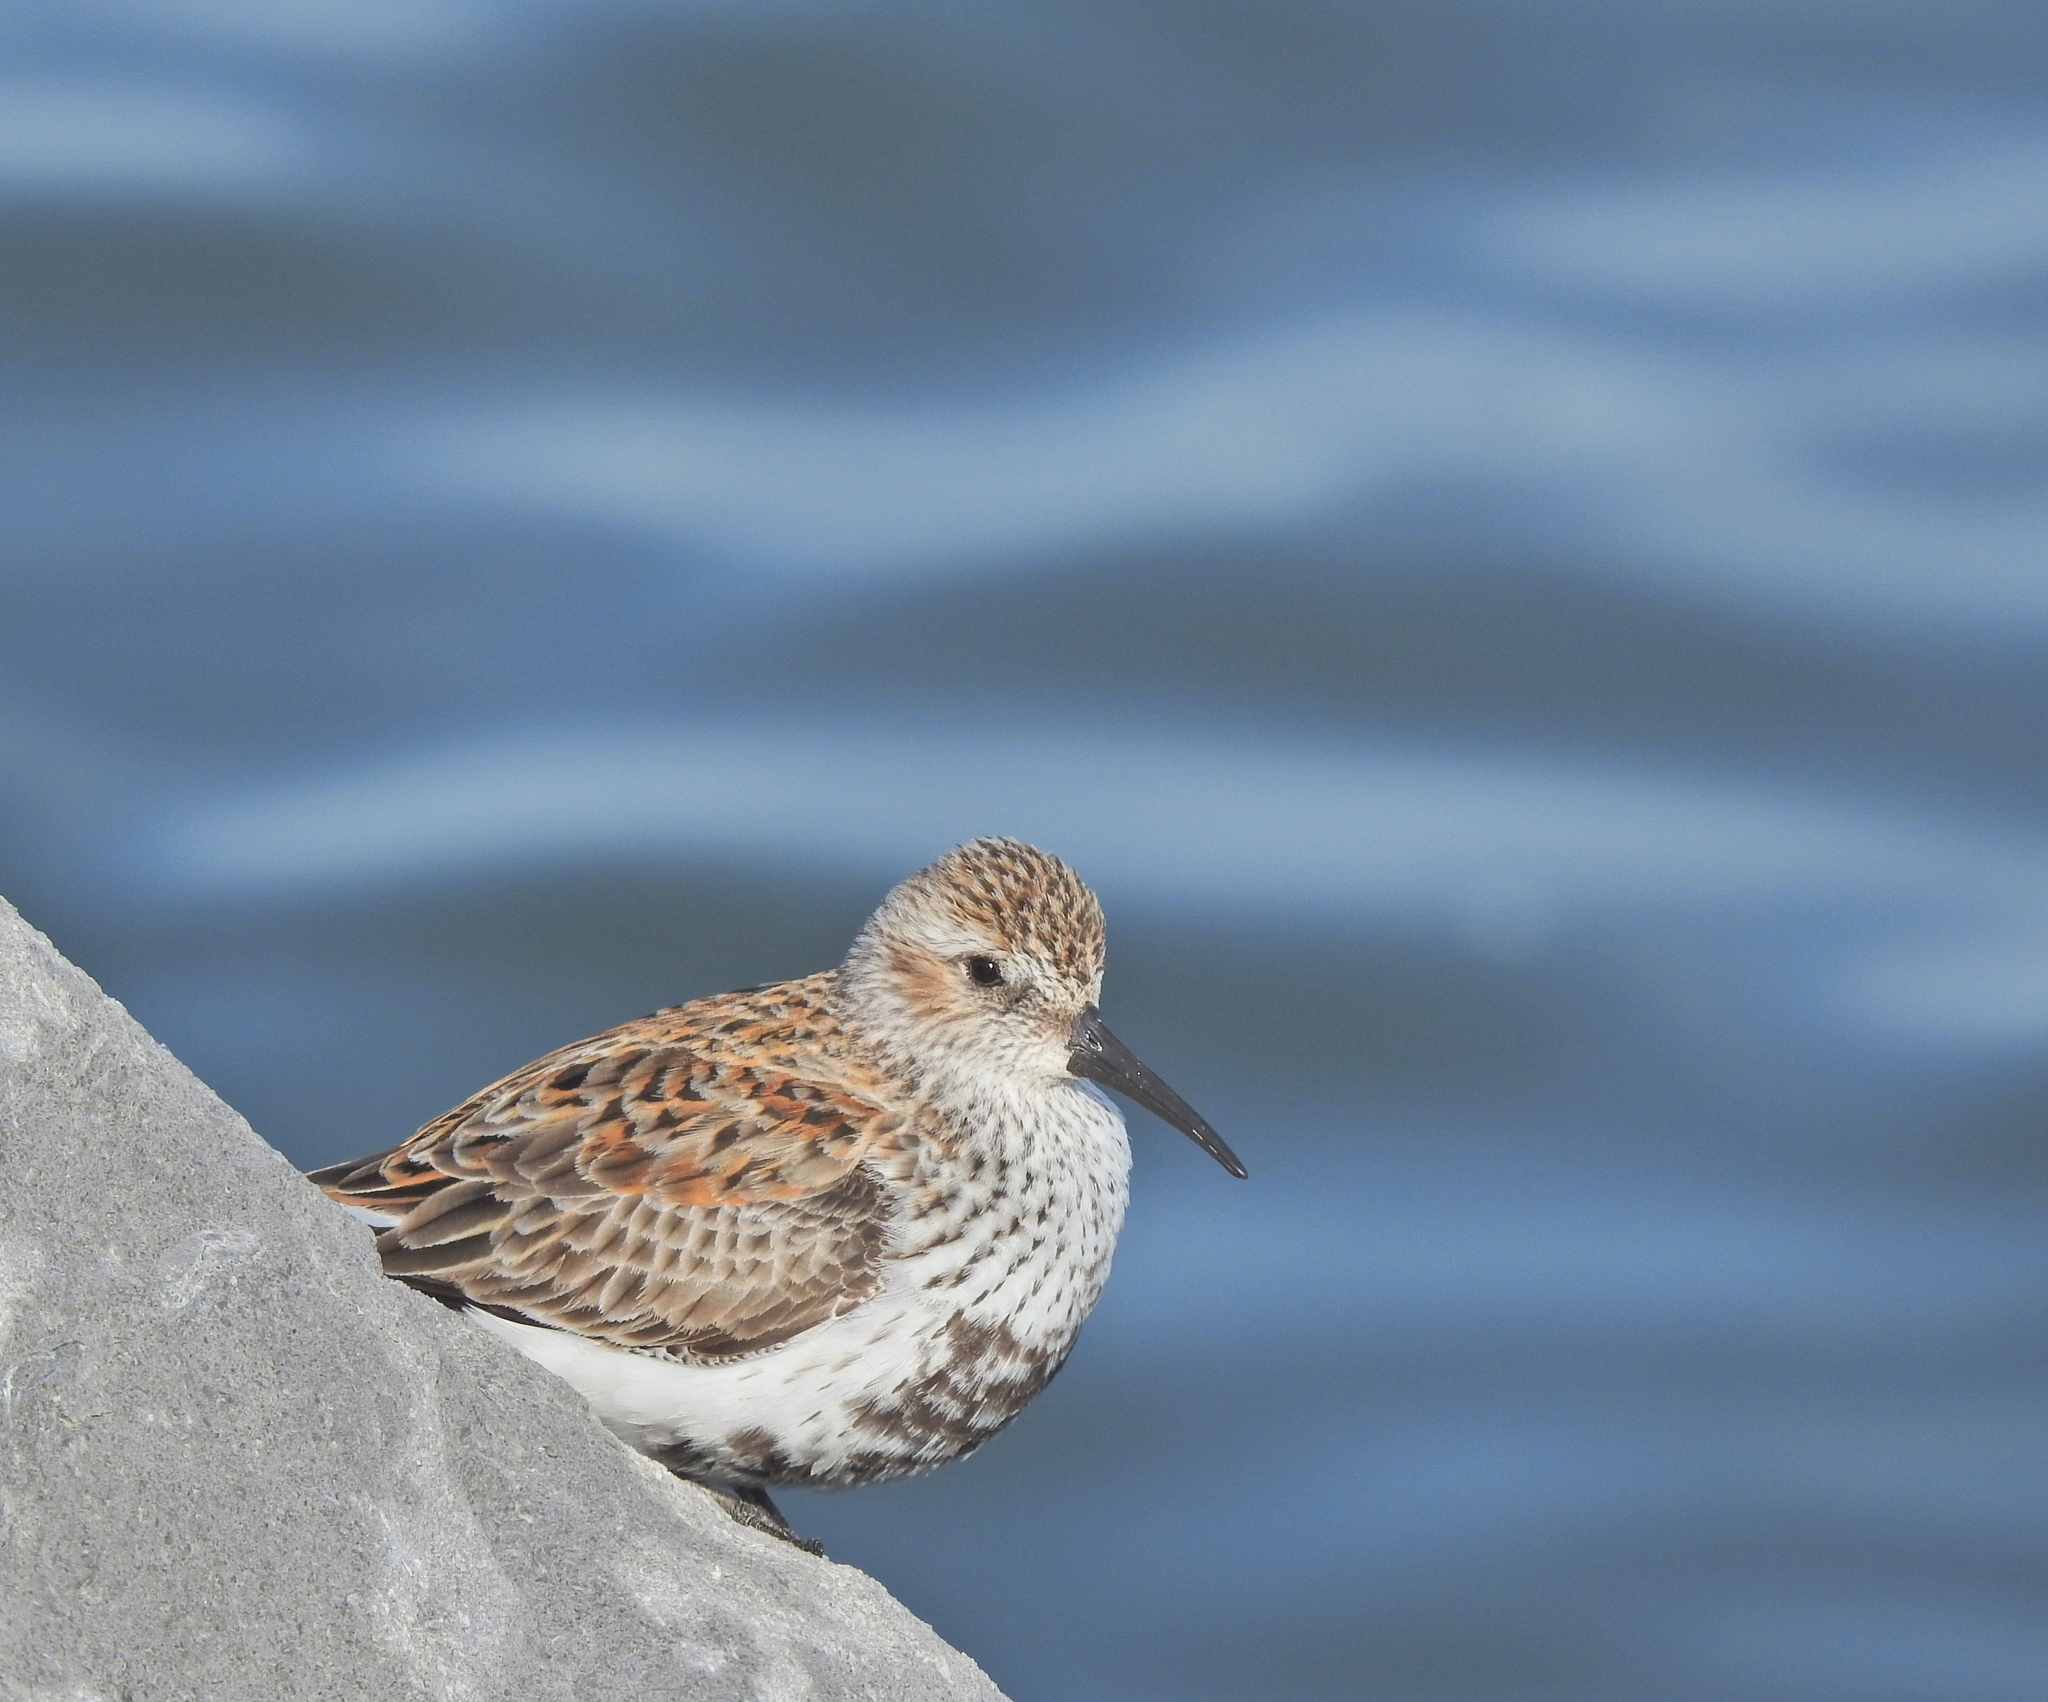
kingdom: Animalia
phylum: Chordata
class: Aves
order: Charadriiformes
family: Scolopacidae
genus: Calidris
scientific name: Calidris alpina
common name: Dunlin
